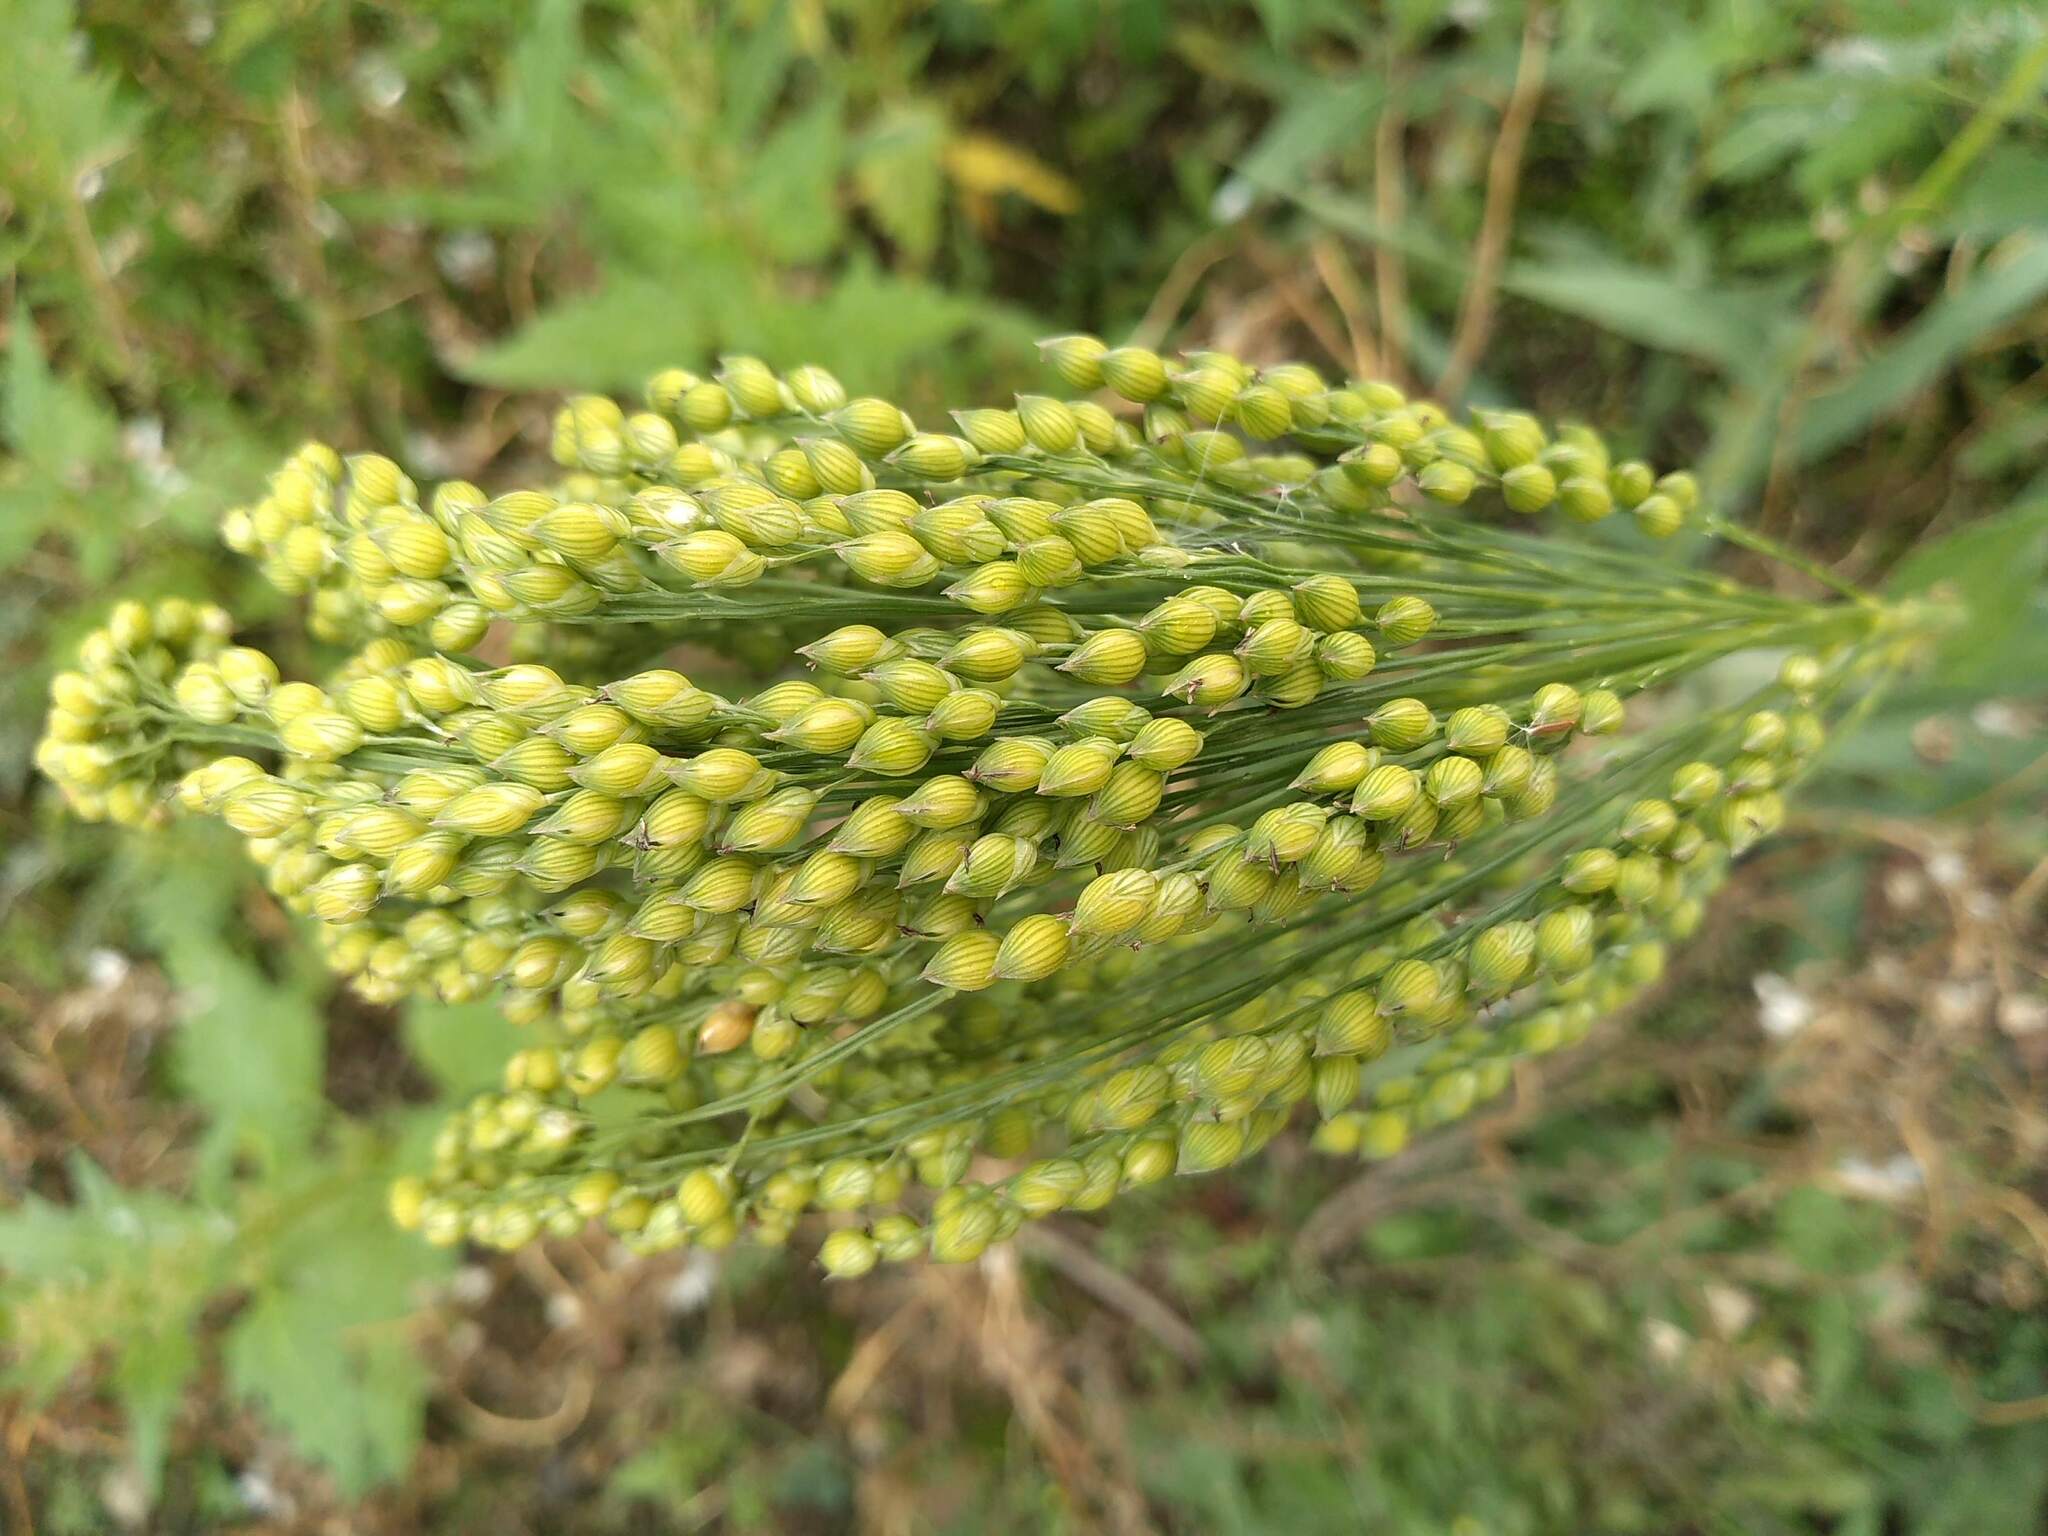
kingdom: Plantae
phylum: Tracheophyta
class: Liliopsida
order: Poales
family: Poaceae
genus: Panicum
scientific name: Panicum miliaceum
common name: Common millet
